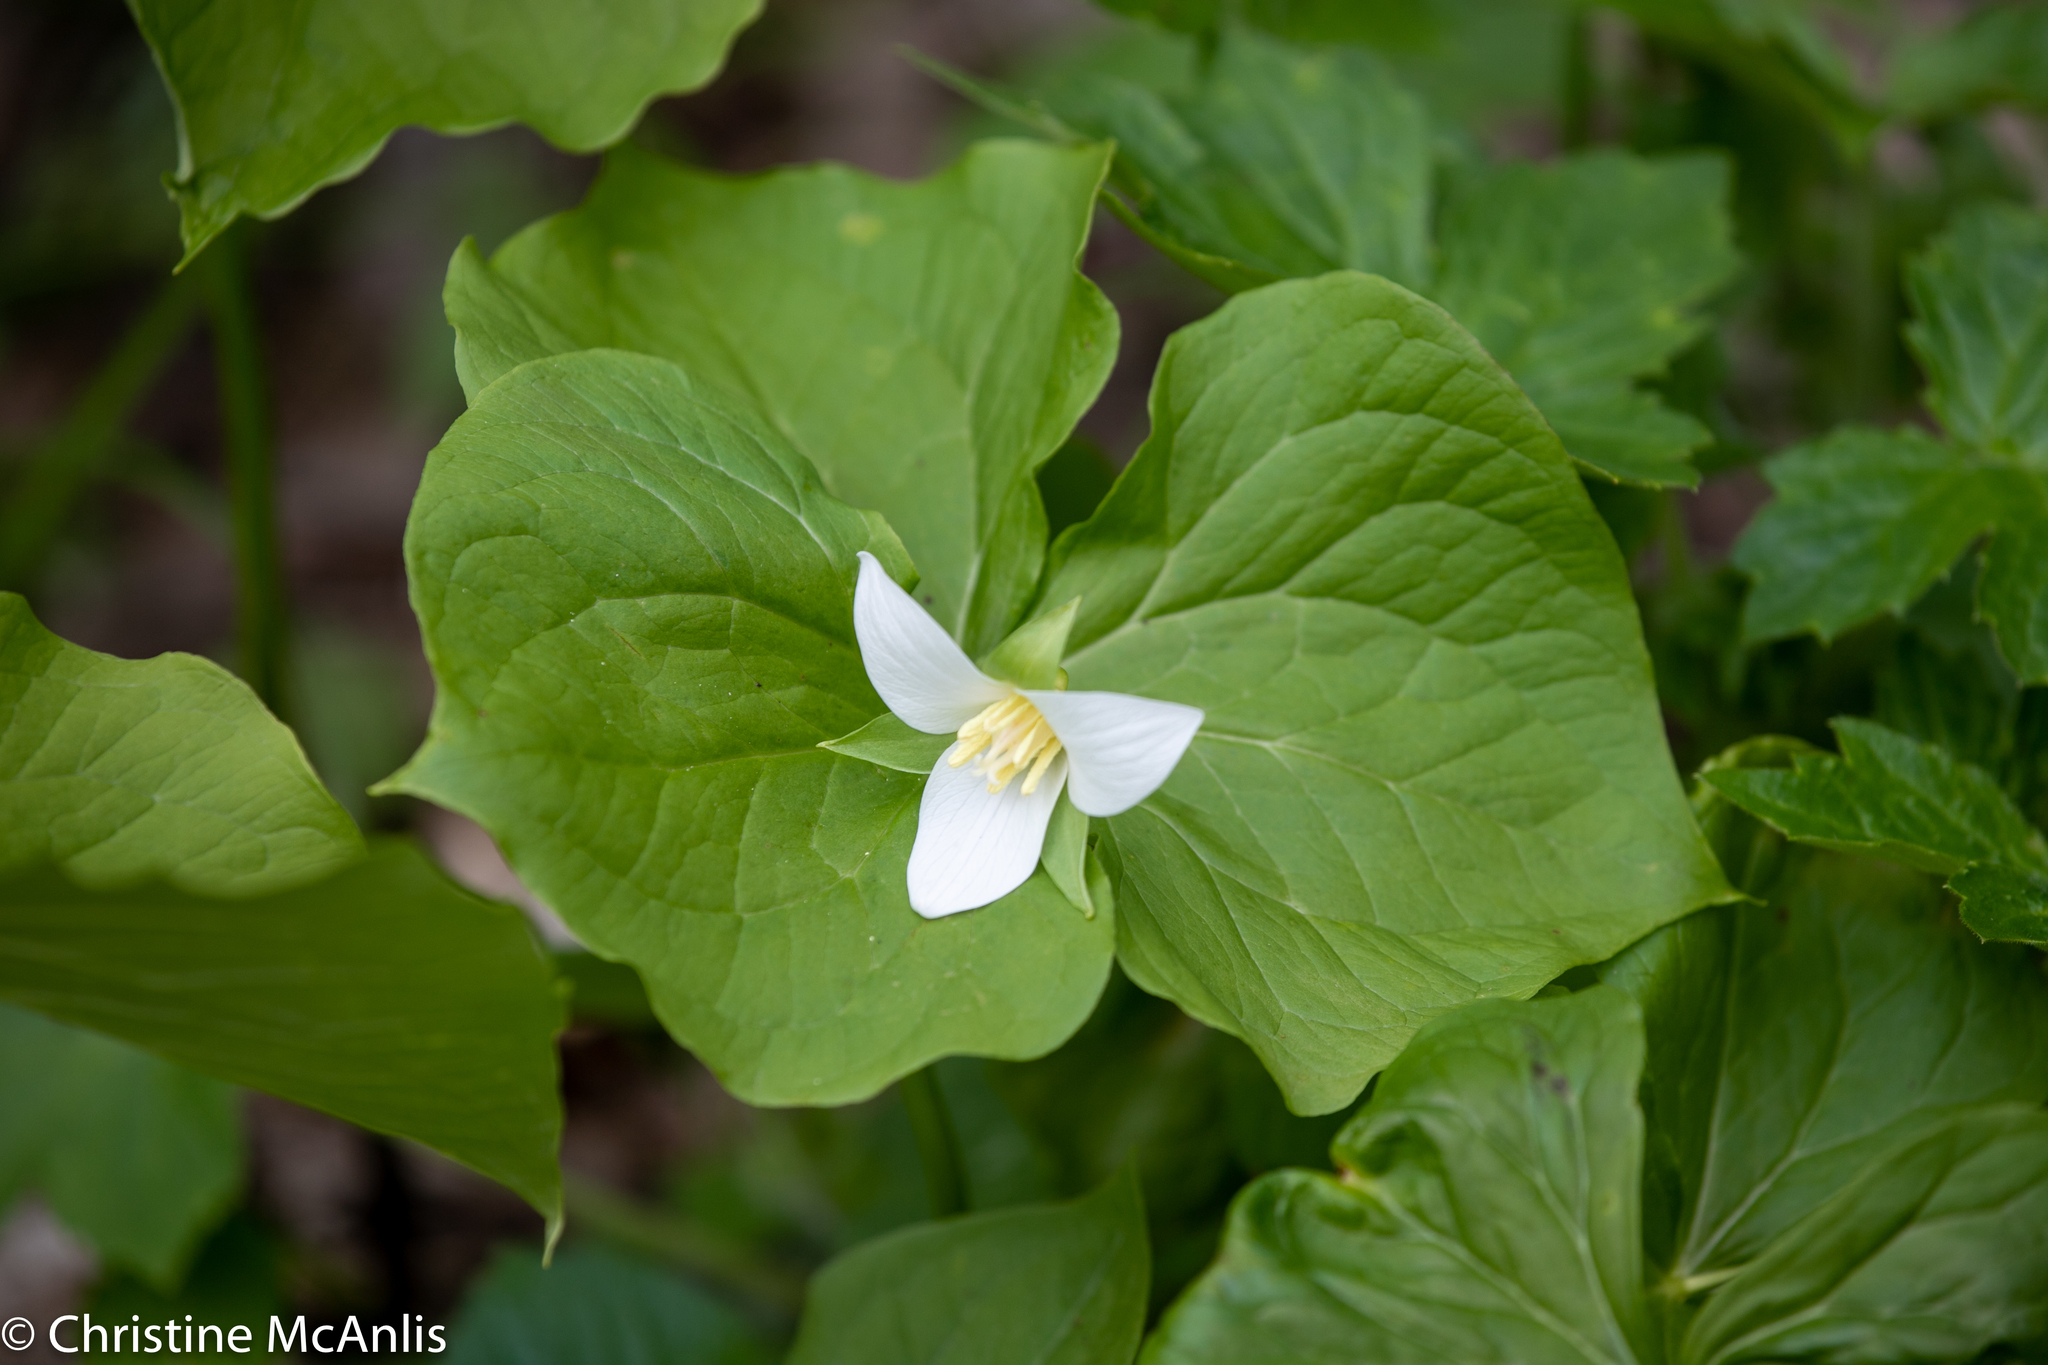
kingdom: Plantae
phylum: Tracheophyta
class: Liliopsida
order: Liliales
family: Melanthiaceae
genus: Trillium
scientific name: Trillium flexipes
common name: Drooping trillium
